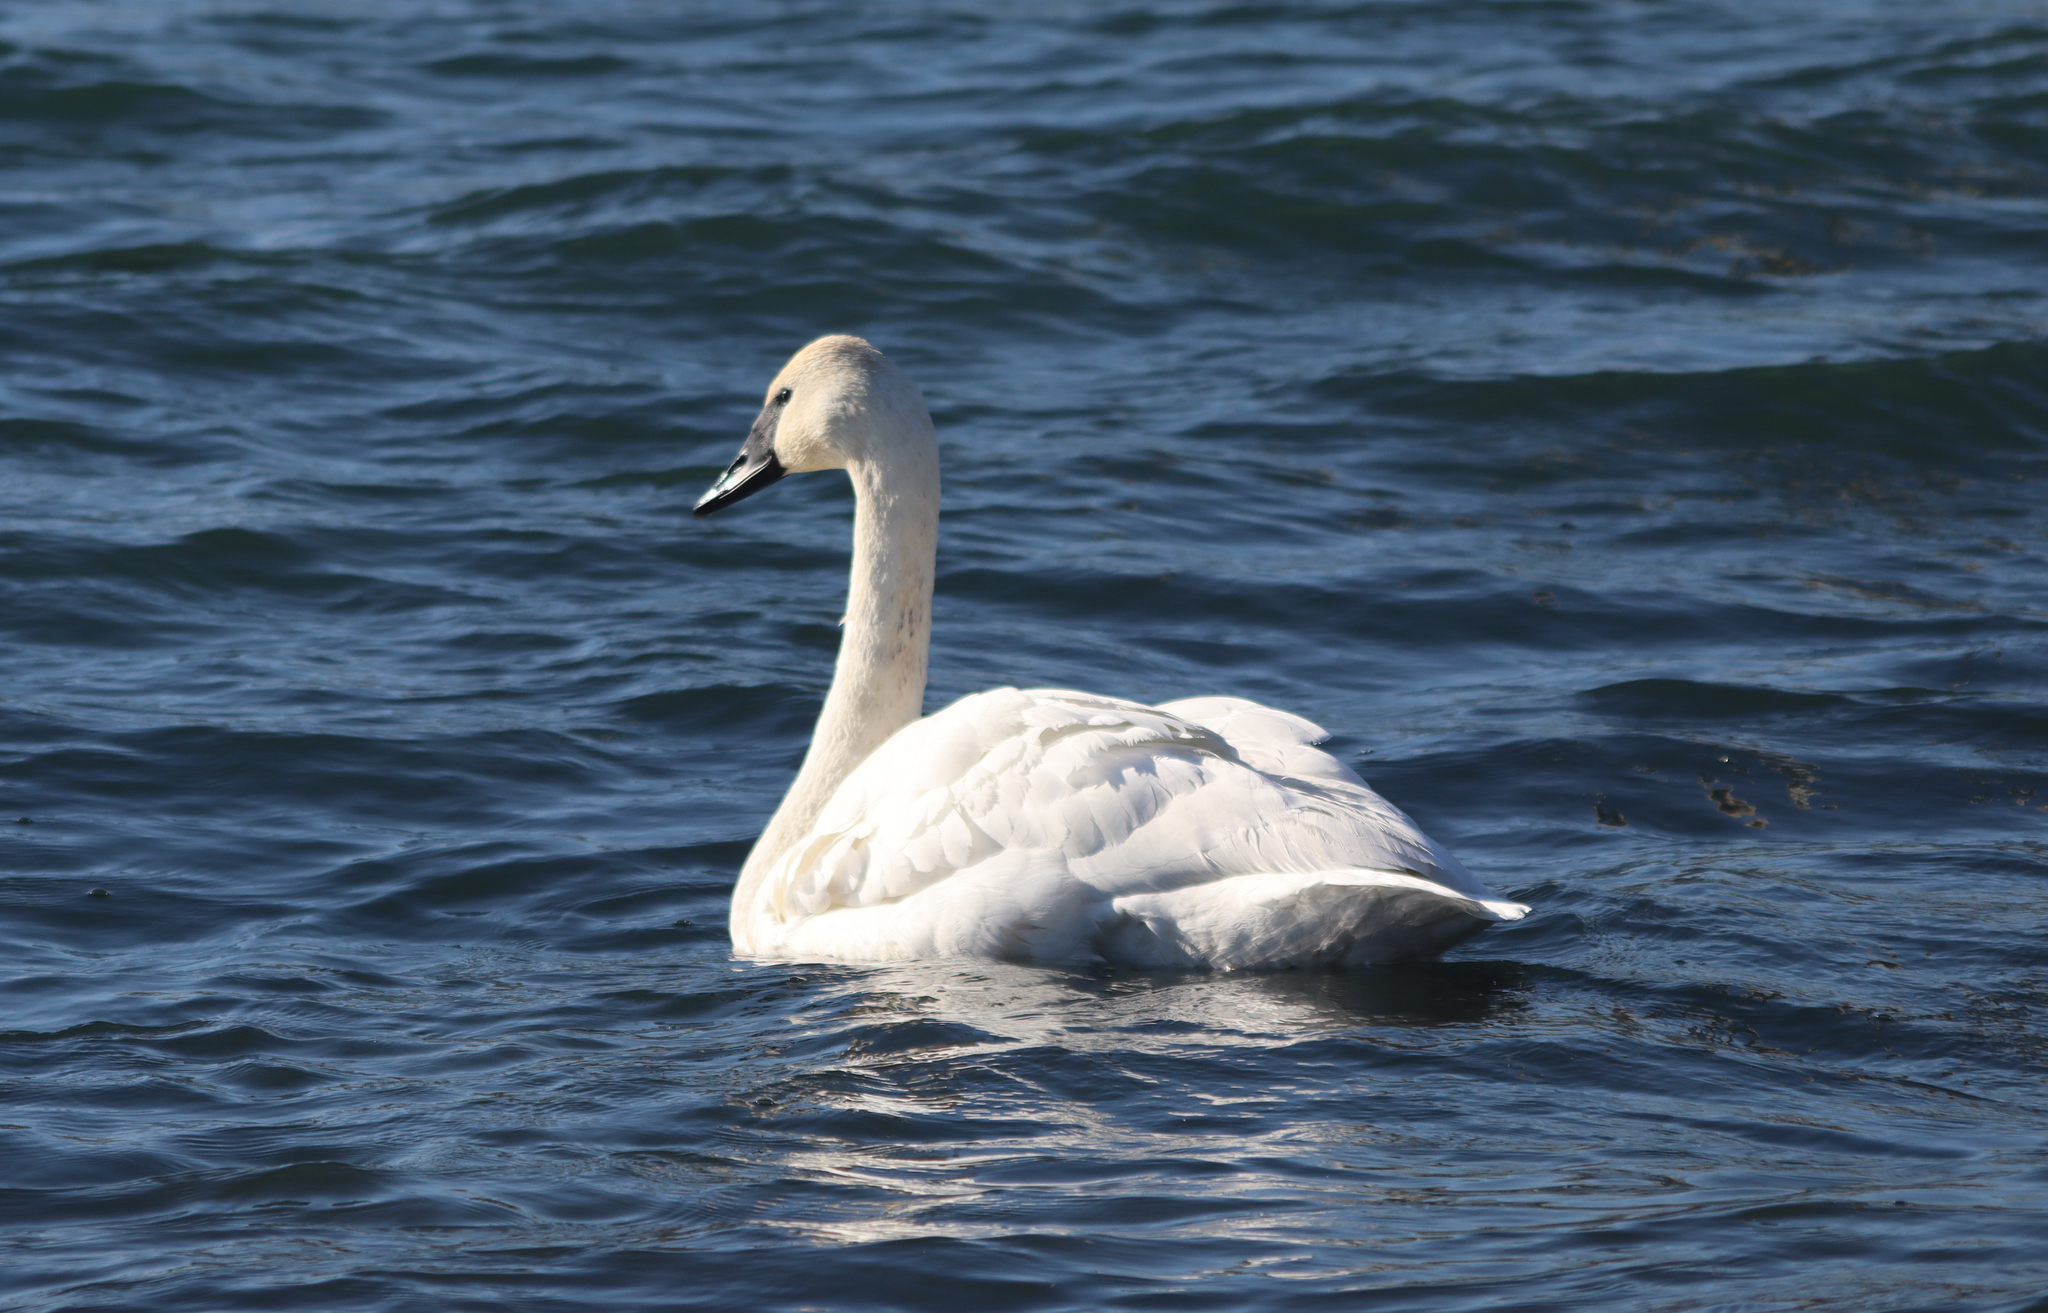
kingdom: Animalia
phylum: Chordata
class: Aves
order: Anseriformes
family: Anatidae
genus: Cygnus
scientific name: Cygnus buccinator
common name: Trumpeter swan
